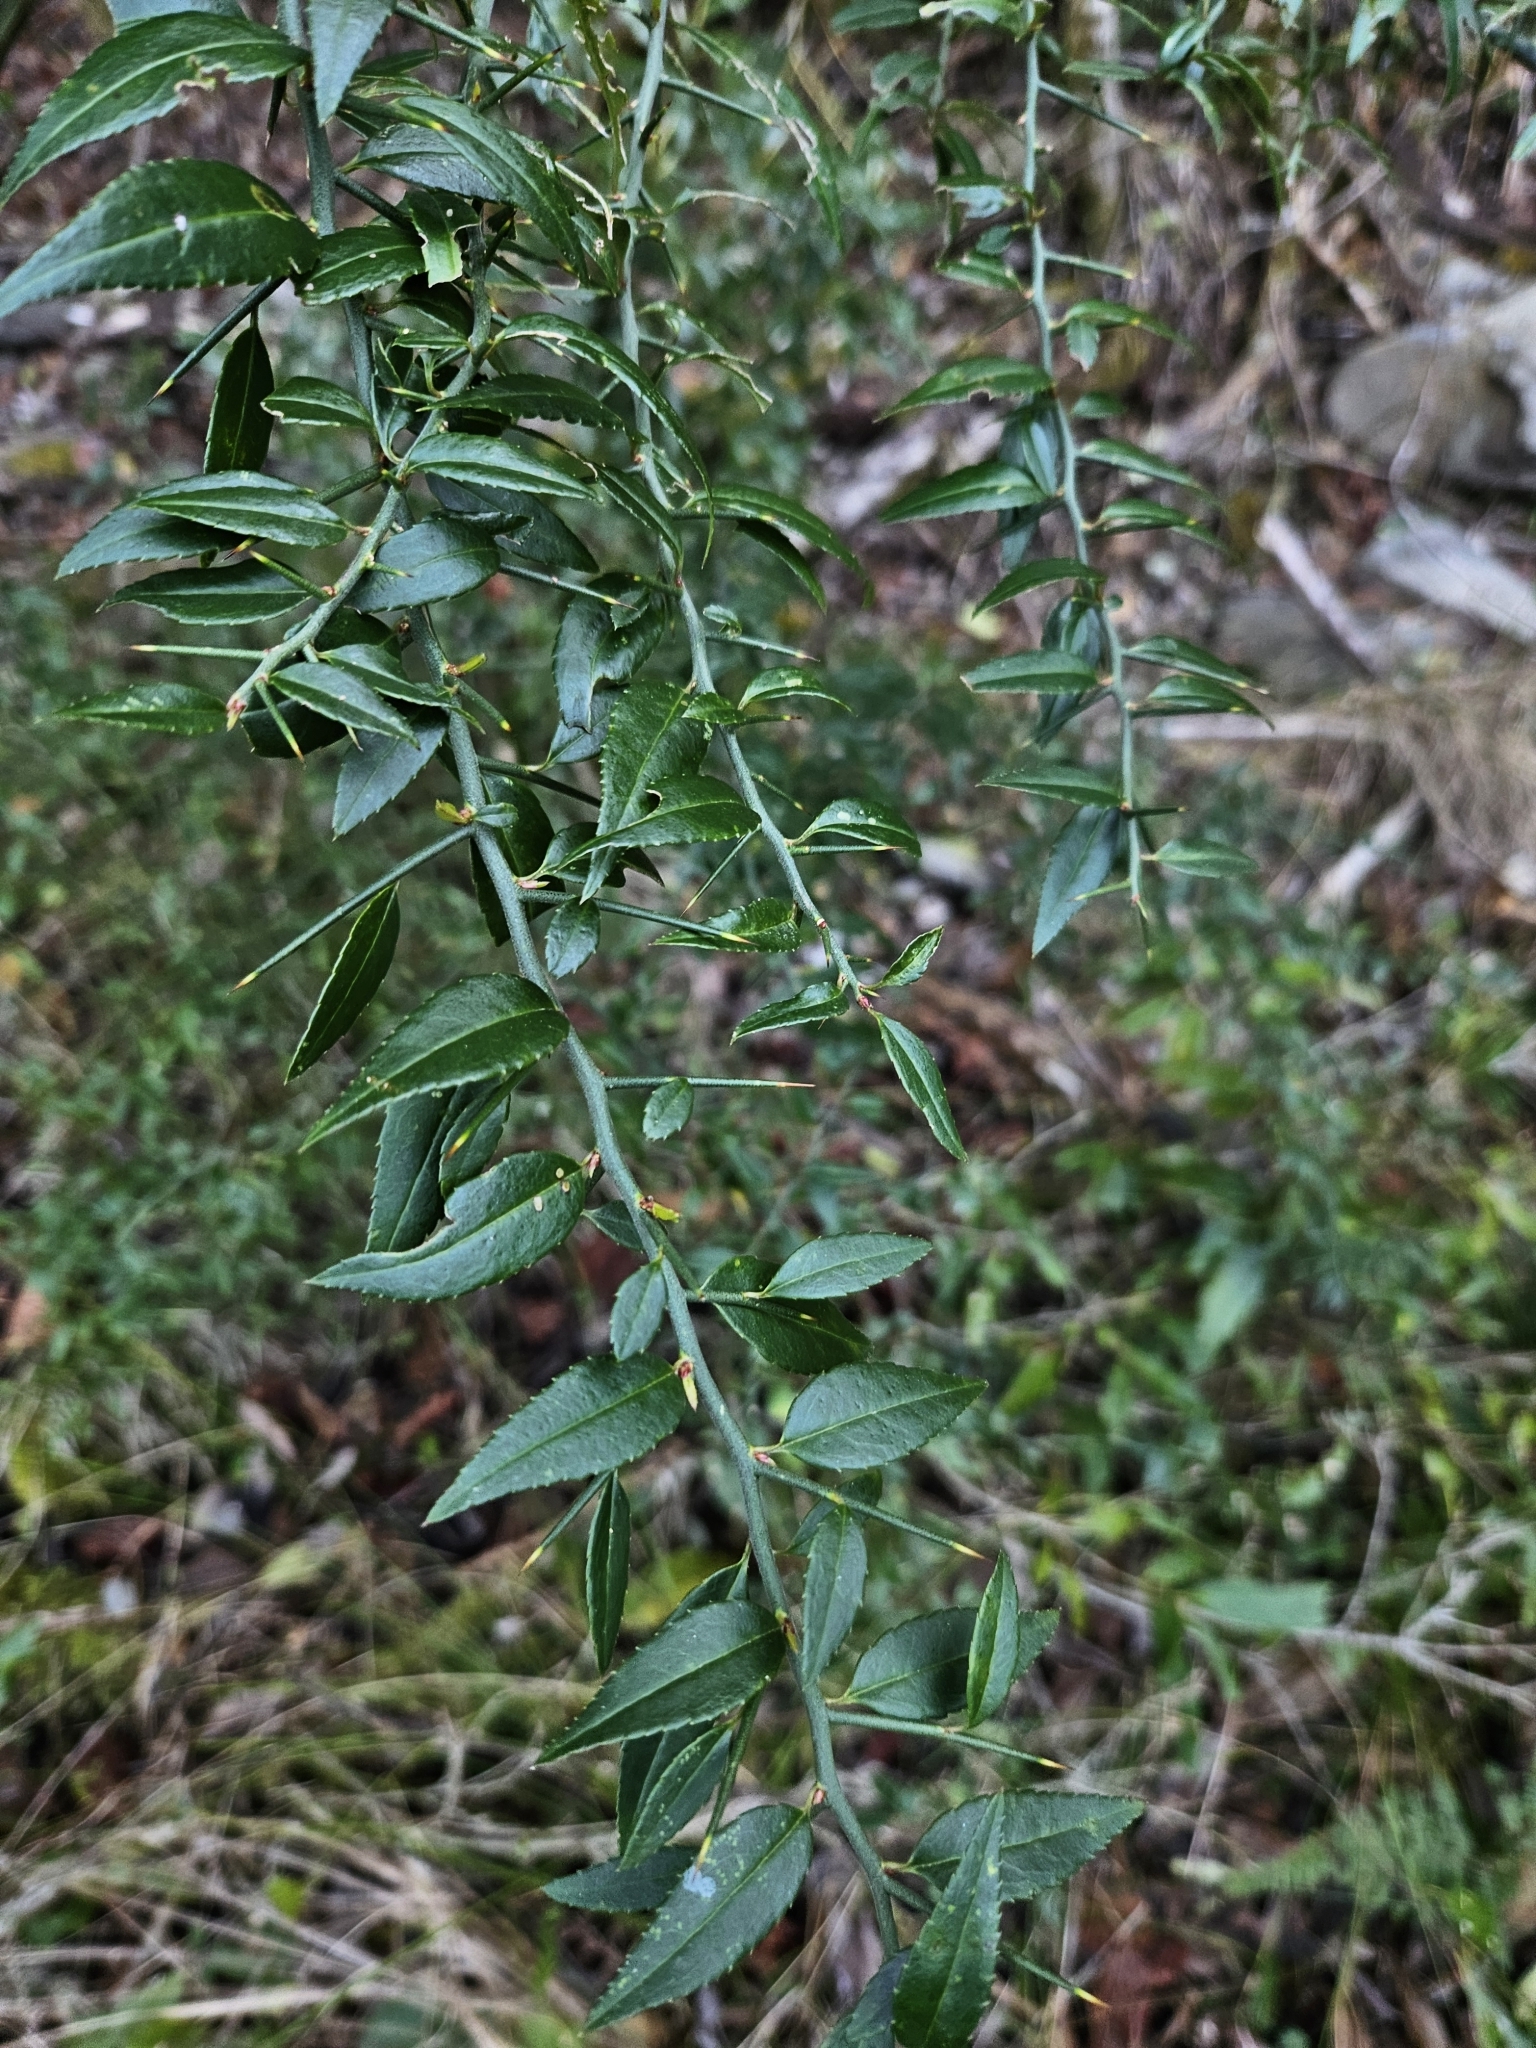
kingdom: Plantae
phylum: Tracheophyta
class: Magnoliopsida
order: Rosales
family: Rosaceae
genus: Prinsepia
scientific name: Prinsepia scandens
